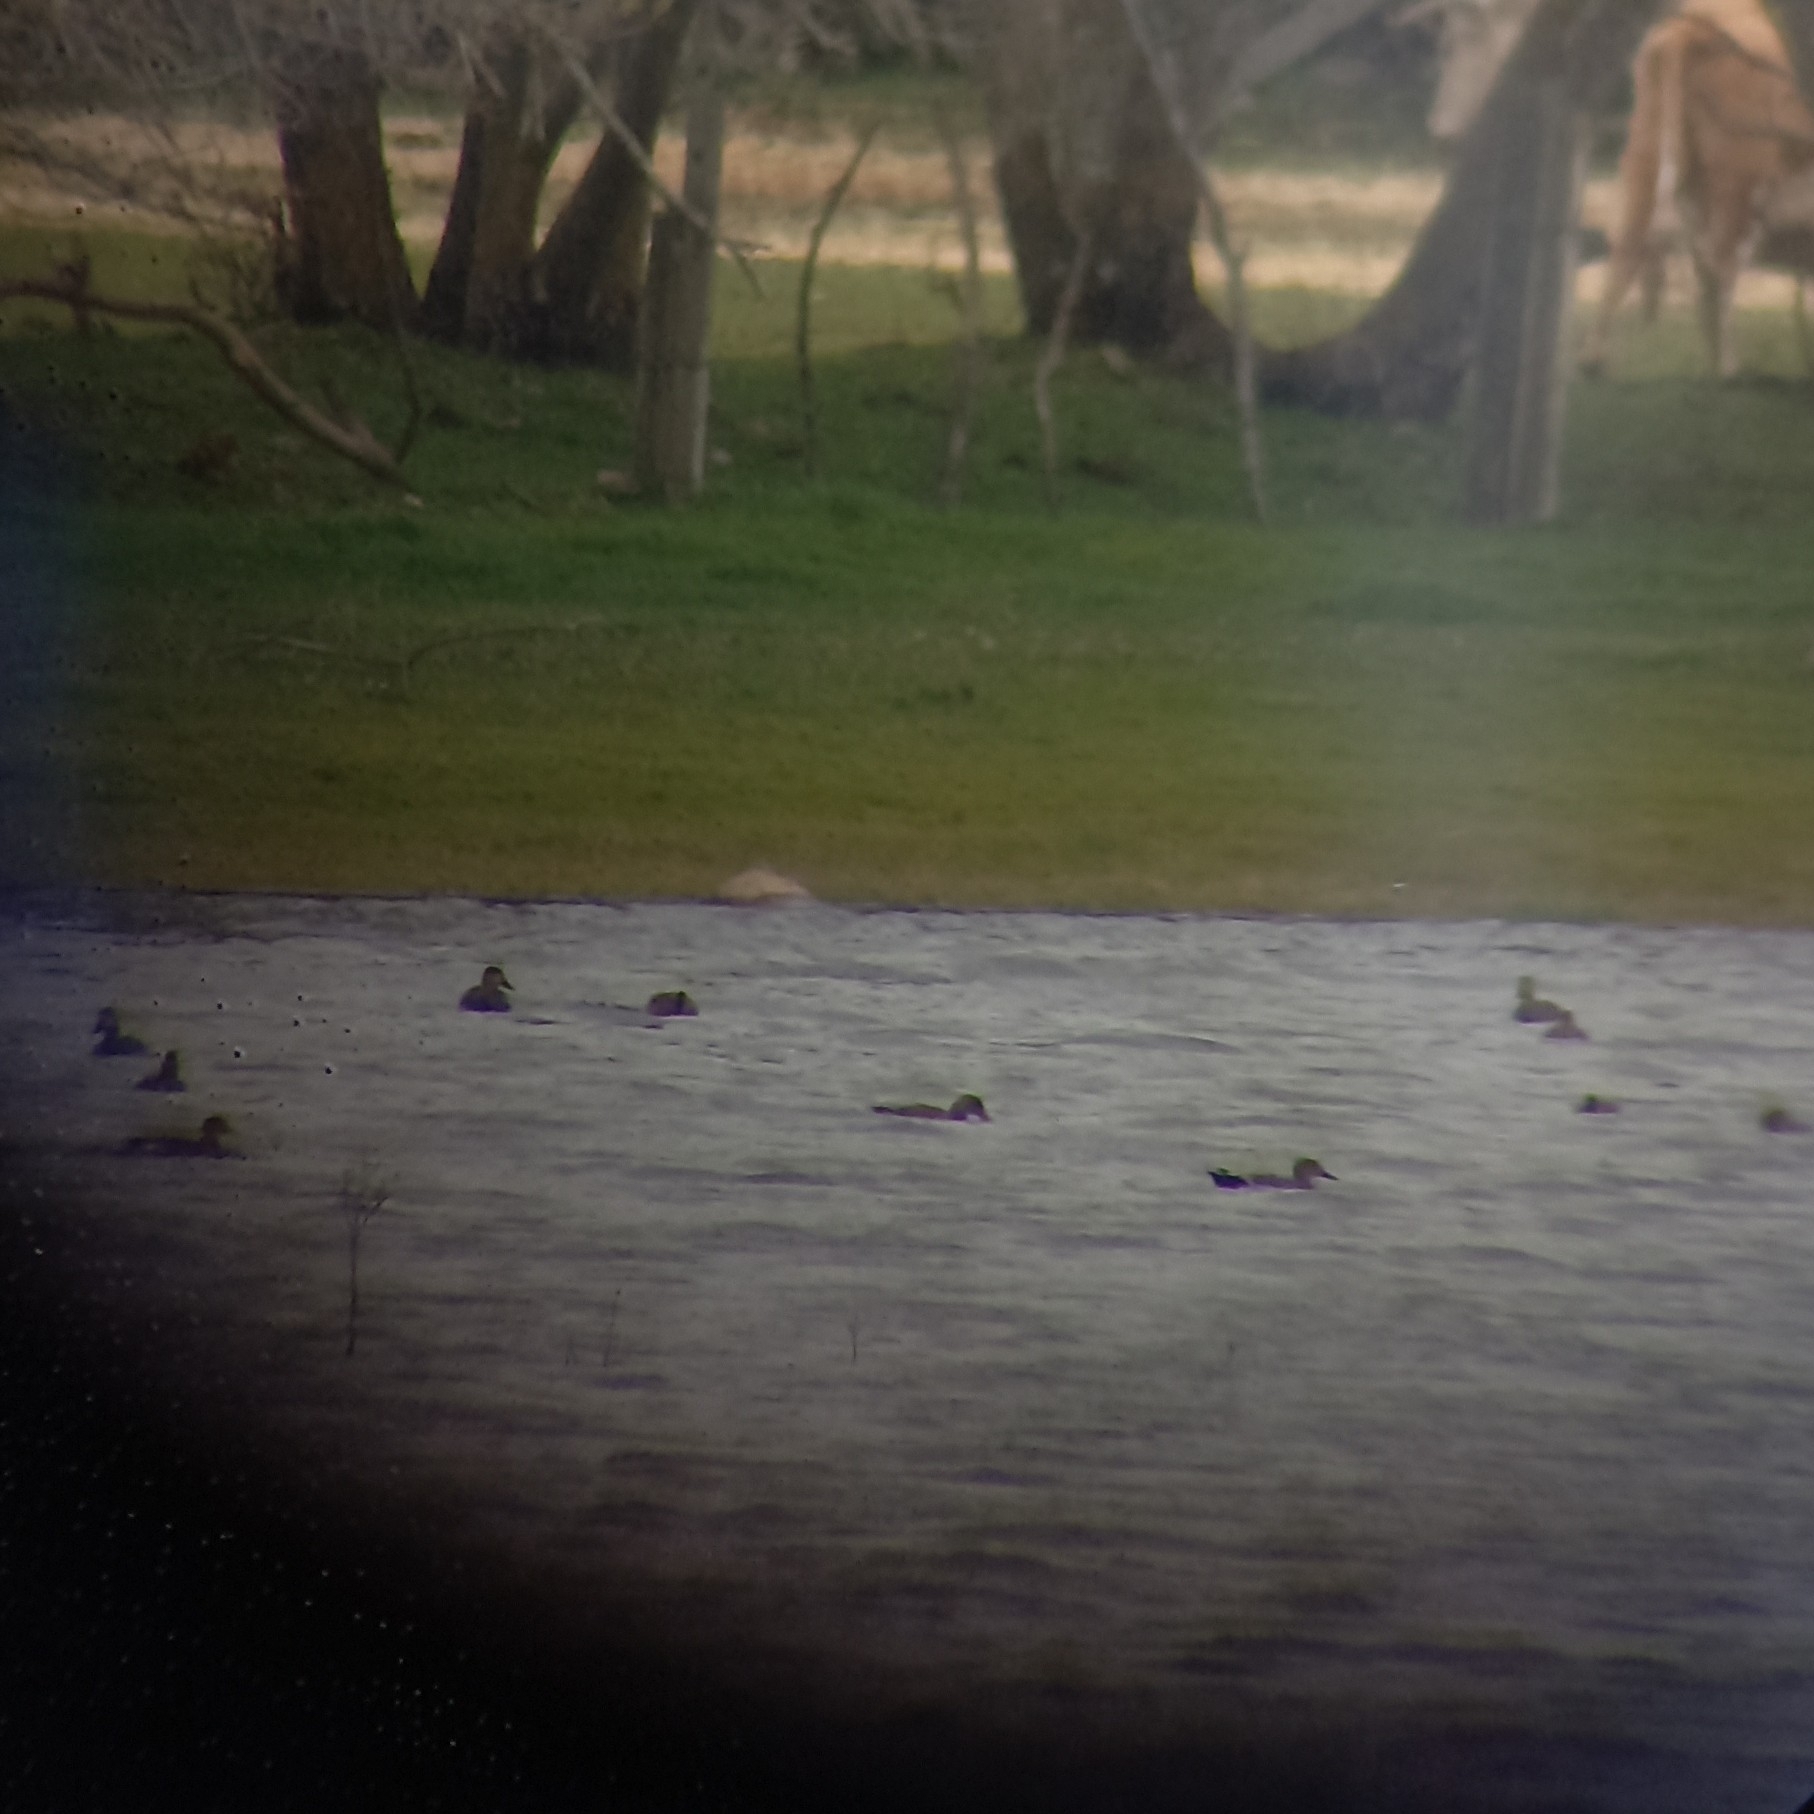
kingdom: Animalia
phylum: Chordata
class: Aves
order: Anseriformes
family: Anatidae
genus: Mareca
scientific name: Mareca strepera
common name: Gadwall
